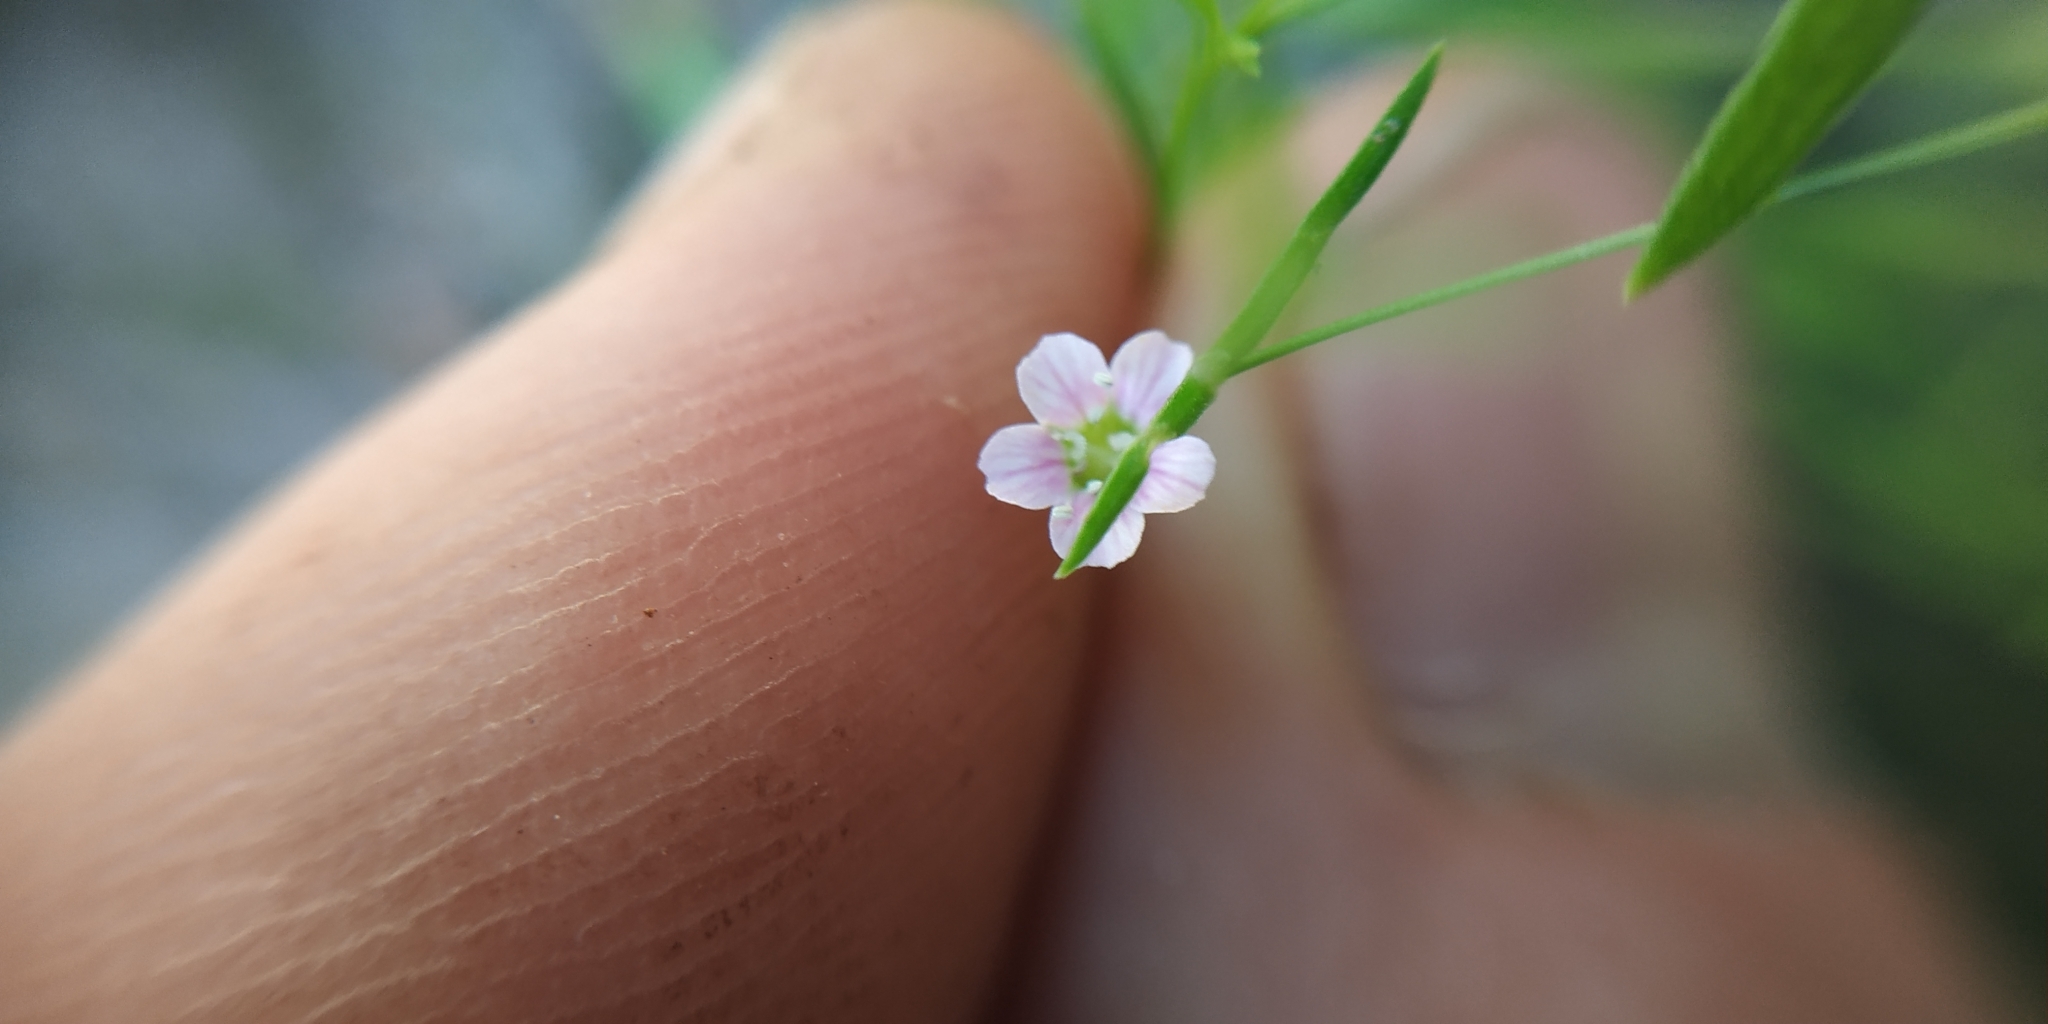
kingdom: Plantae
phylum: Tracheophyta
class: Magnoliopsida
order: Caryophyllales
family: Caryophyllaceae
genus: Psammophiliella
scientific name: Psammophiliella muralis
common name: Cushion baby's-breath
